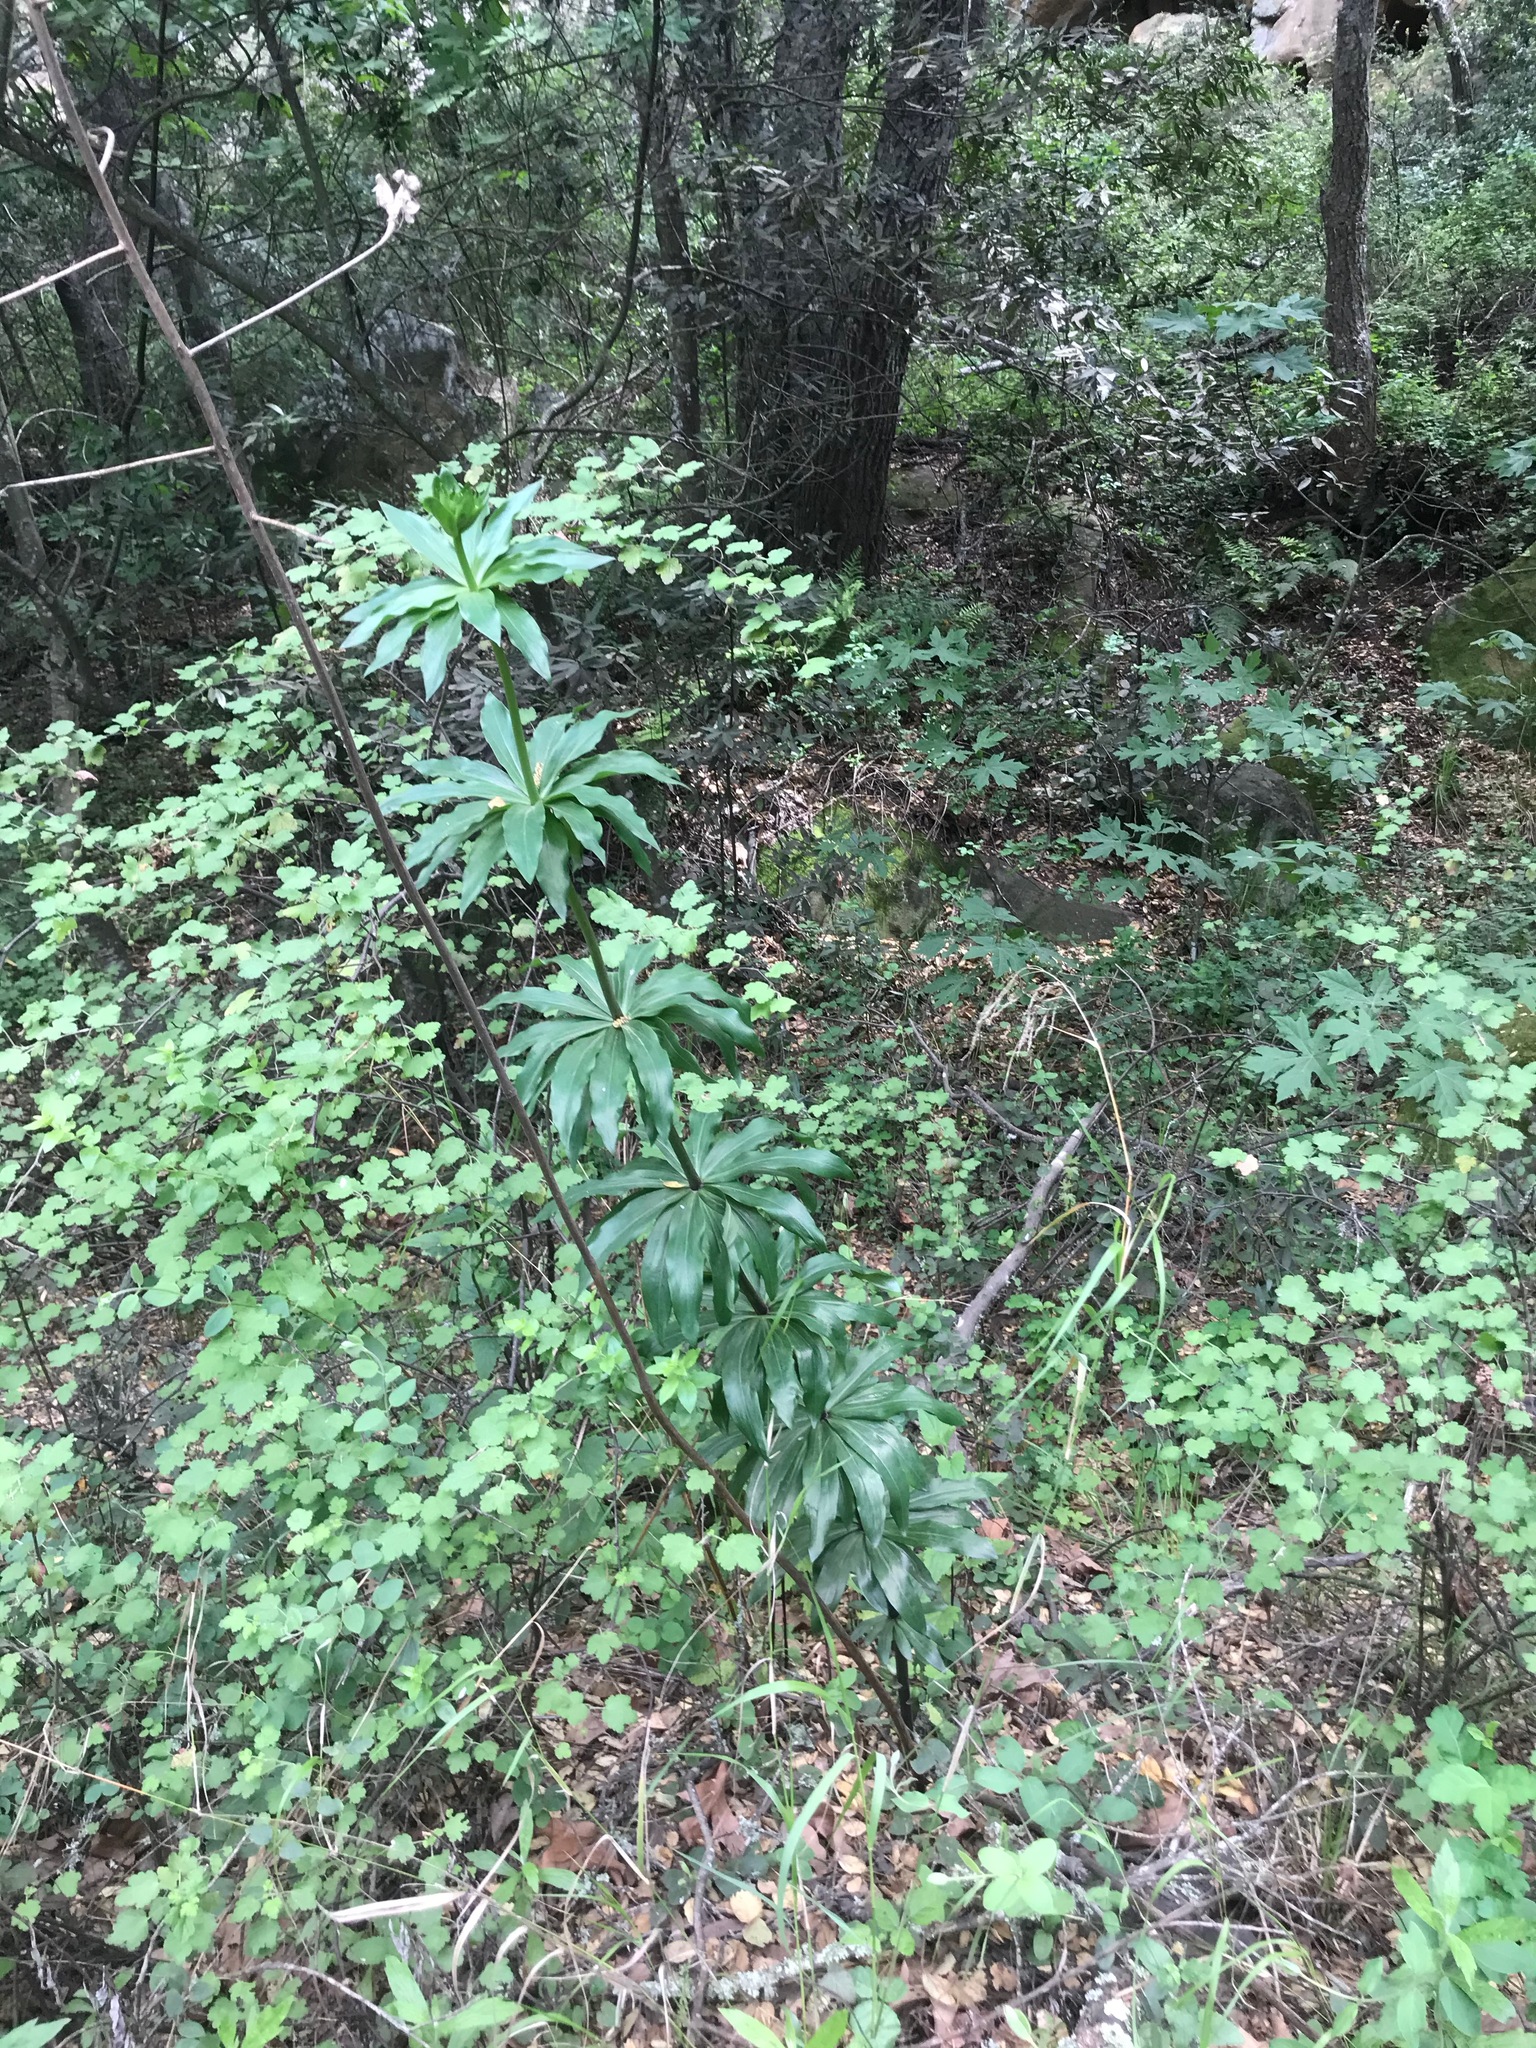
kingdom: Plantae
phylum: Tracheophyta
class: Liliopsida
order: Liliales
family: Liliaceae
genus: Lilium
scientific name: Lilium humboldtii
